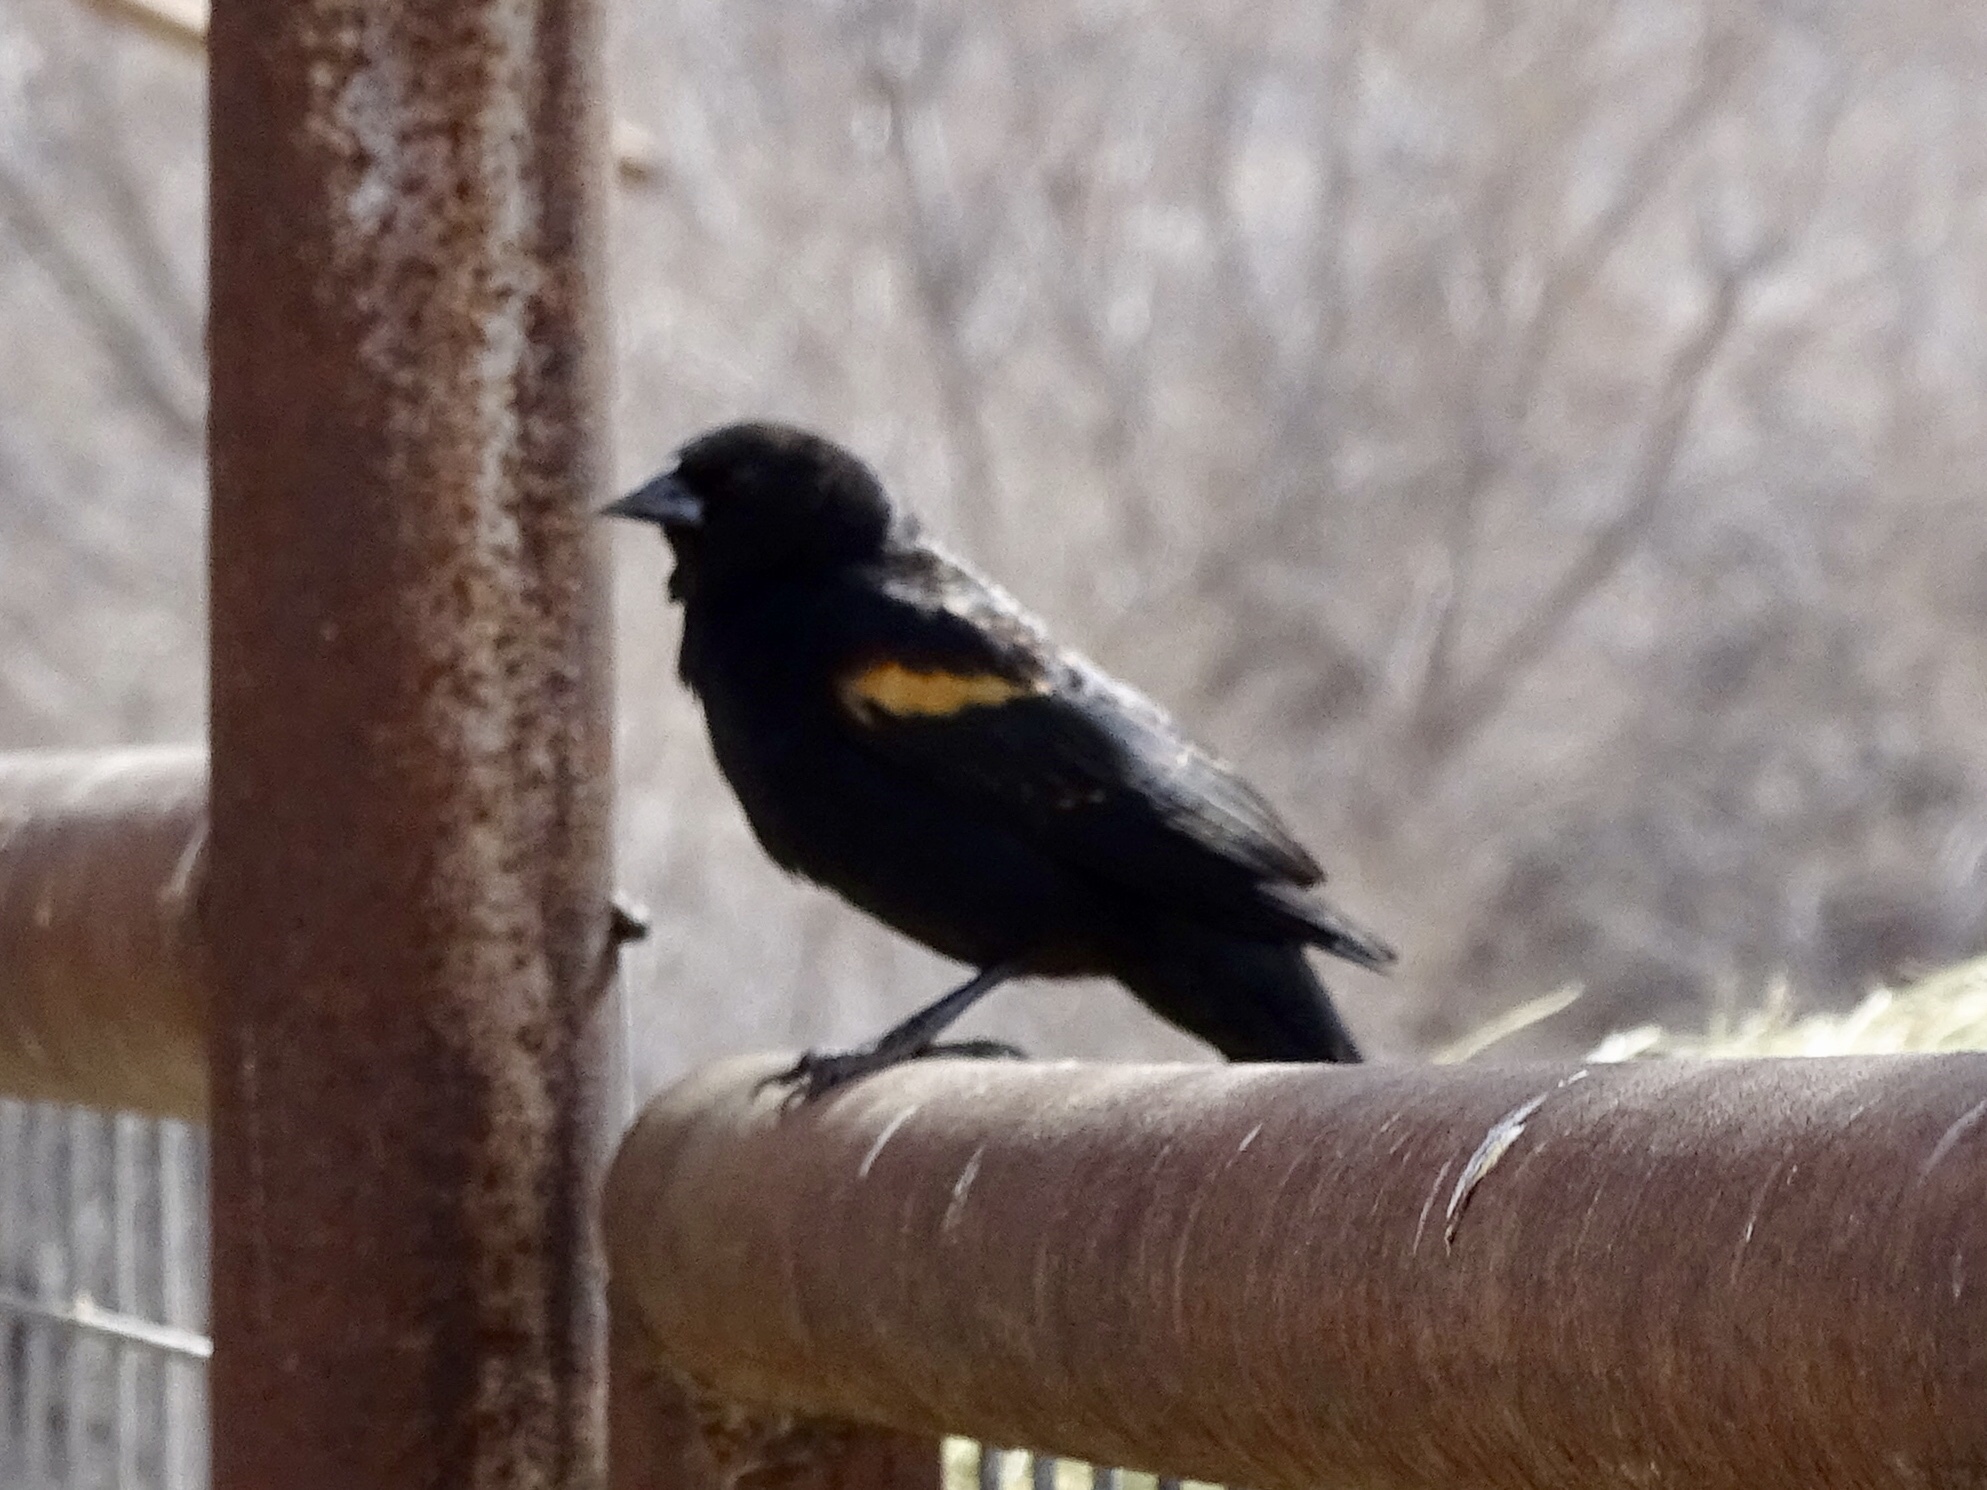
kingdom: Animalia
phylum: Chordata
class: Aves
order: Passeriformes
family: Icteridae
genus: Agelaius
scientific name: Agelaius phoeniceus
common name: Red-winged blackbird
